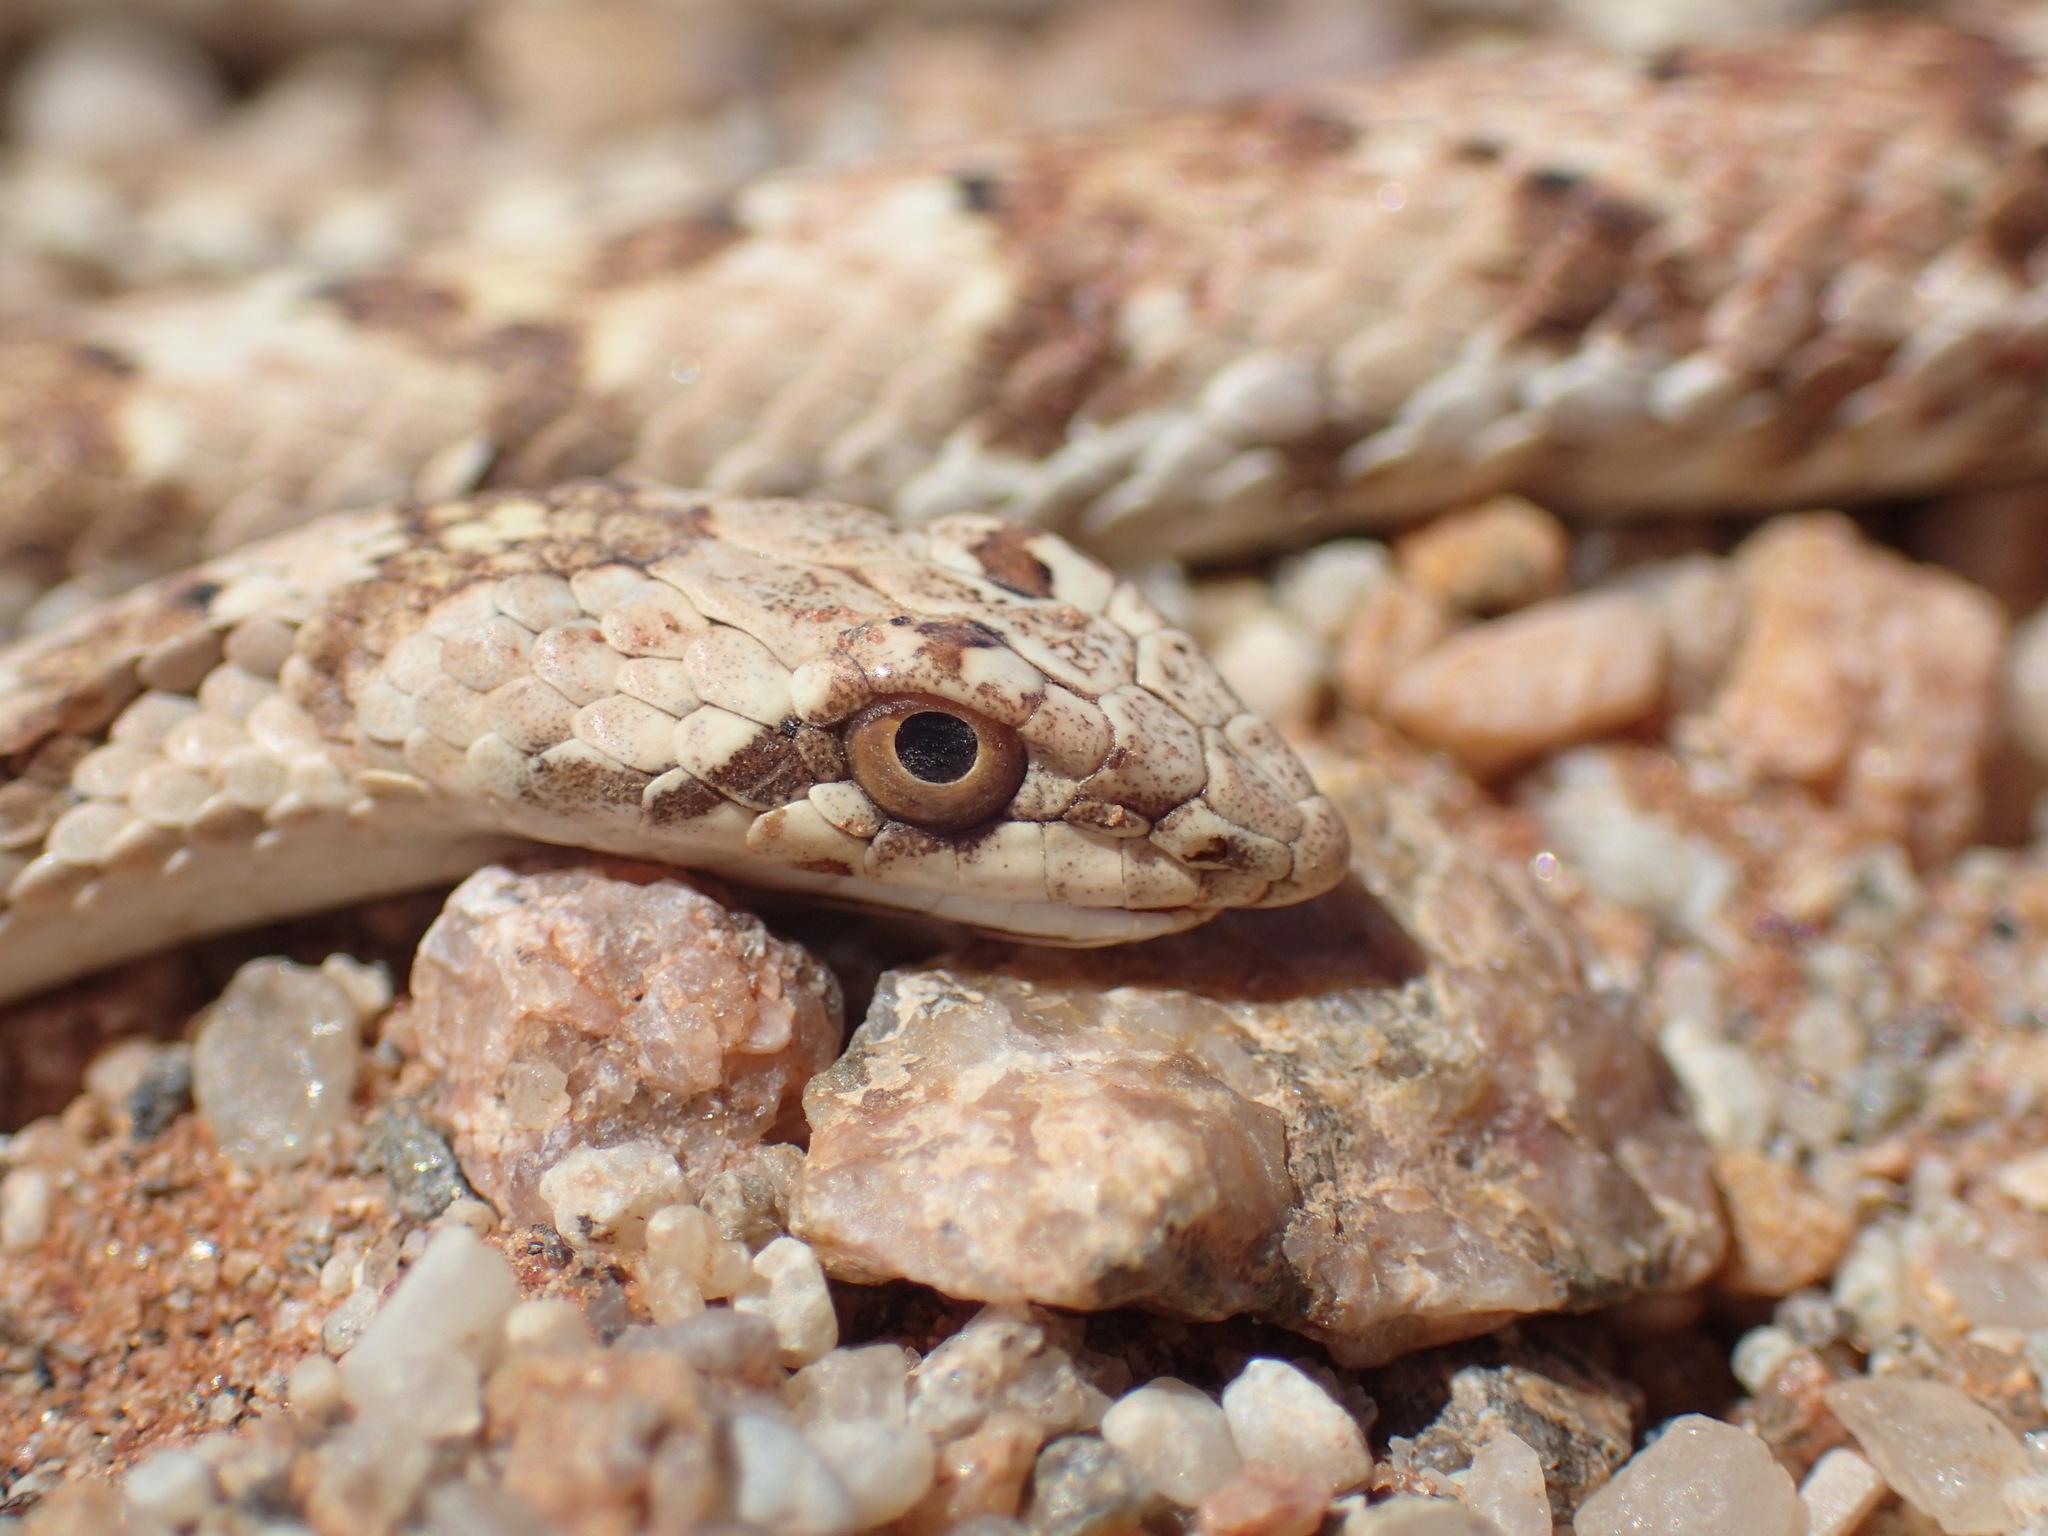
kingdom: Animalia
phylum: Chordata
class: Squamata
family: Psammophiidae
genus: Dipsina
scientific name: Dipsina multimaculata
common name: Dwarf beaked snake
